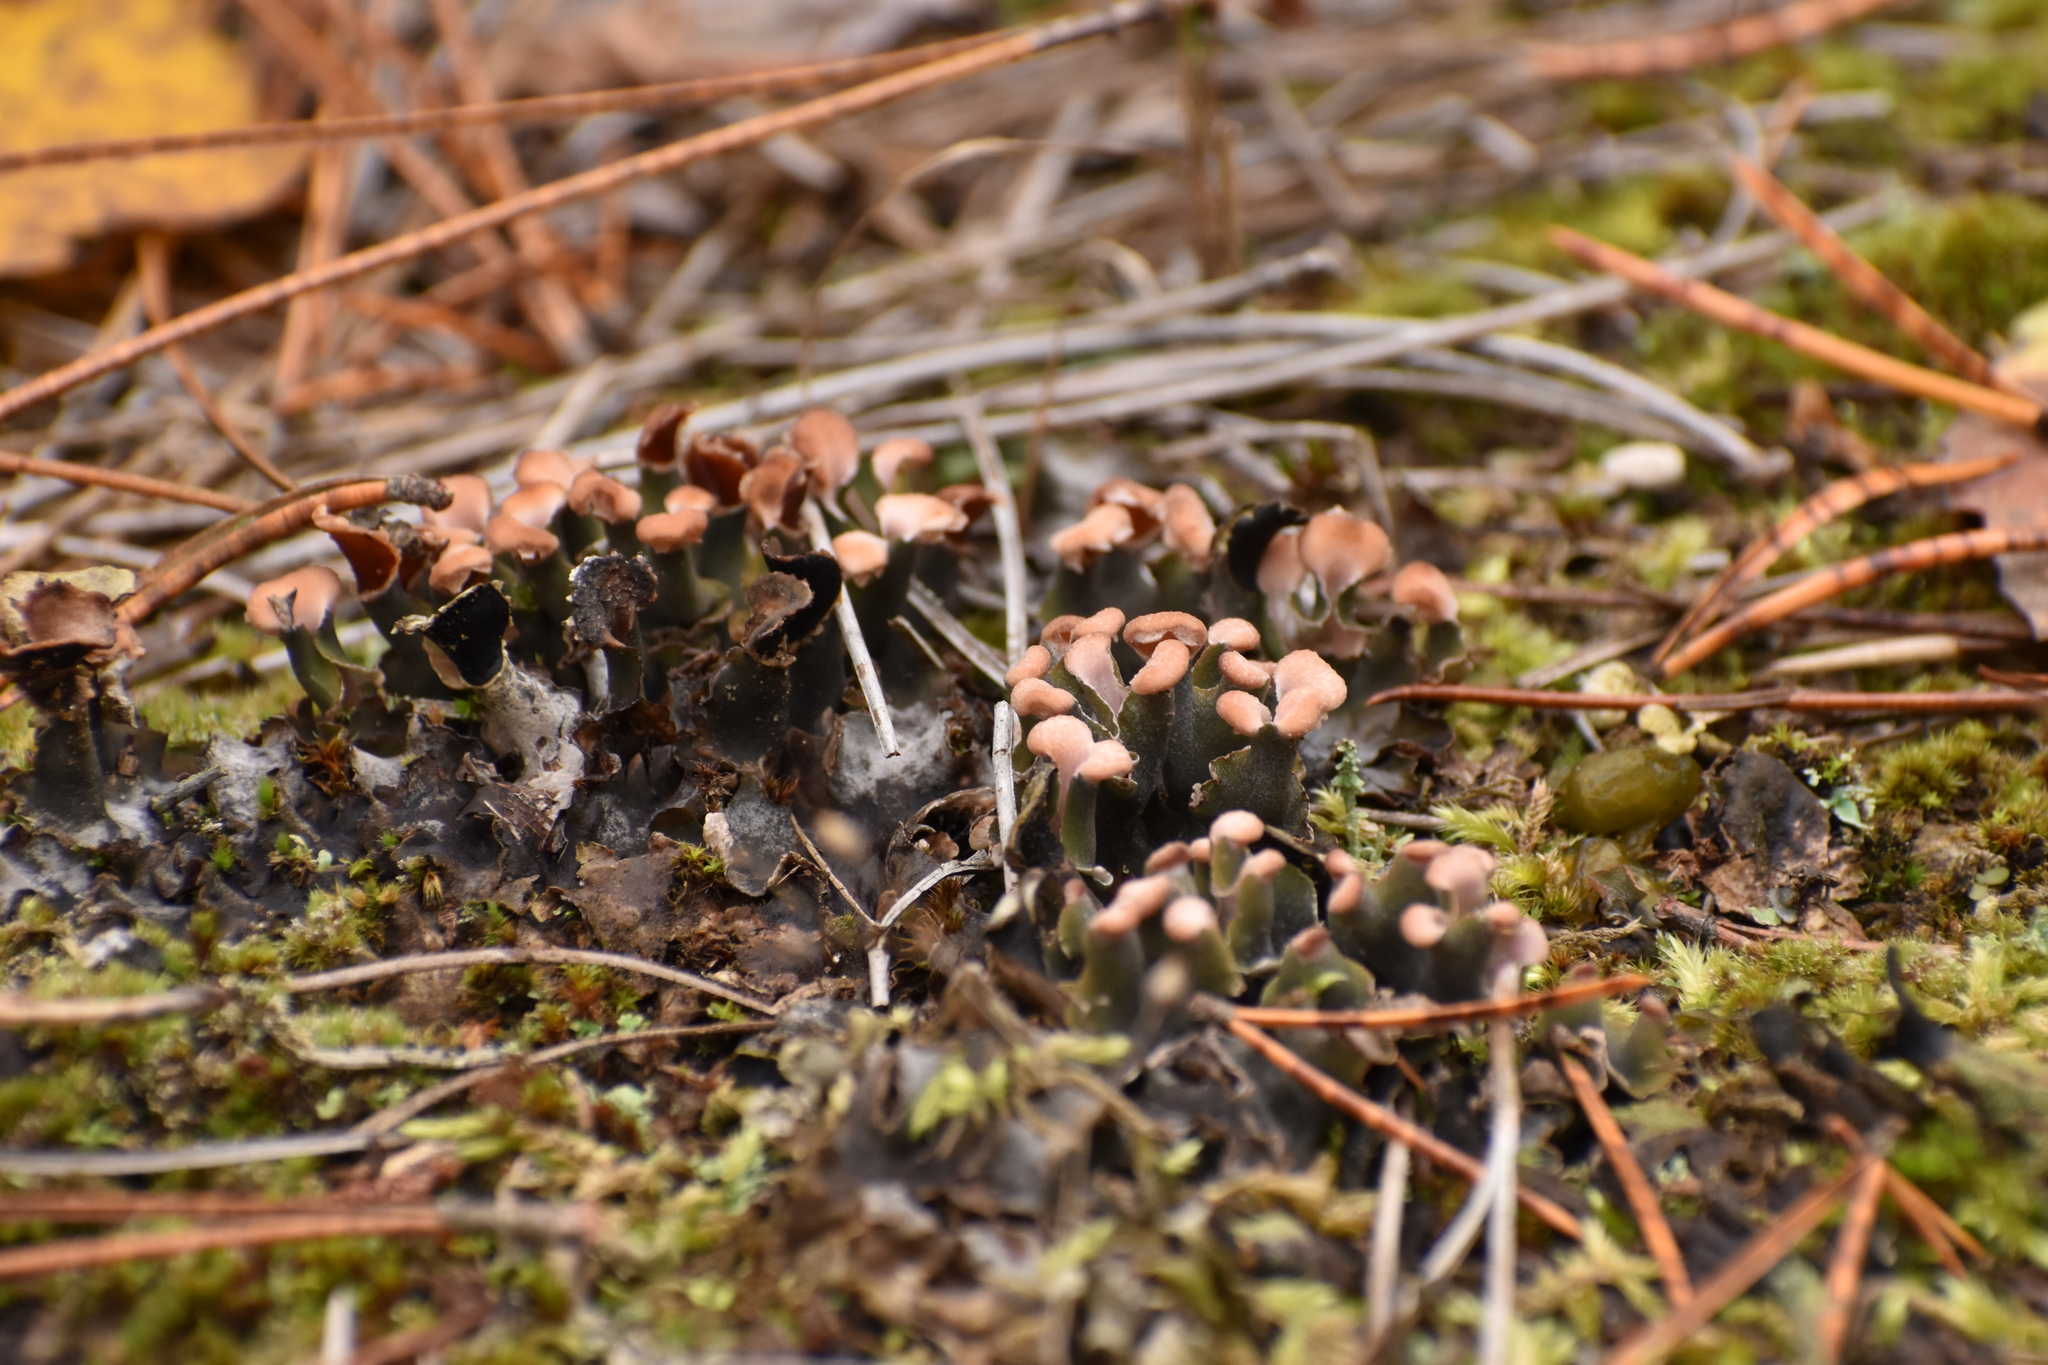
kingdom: Fungi
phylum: Ascomycota
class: Lecanoromycetes
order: Peltigerales
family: Peltigeraceae
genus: Peltigera
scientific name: Peltigera polydactylon
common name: Many-fruited pelt lichen
